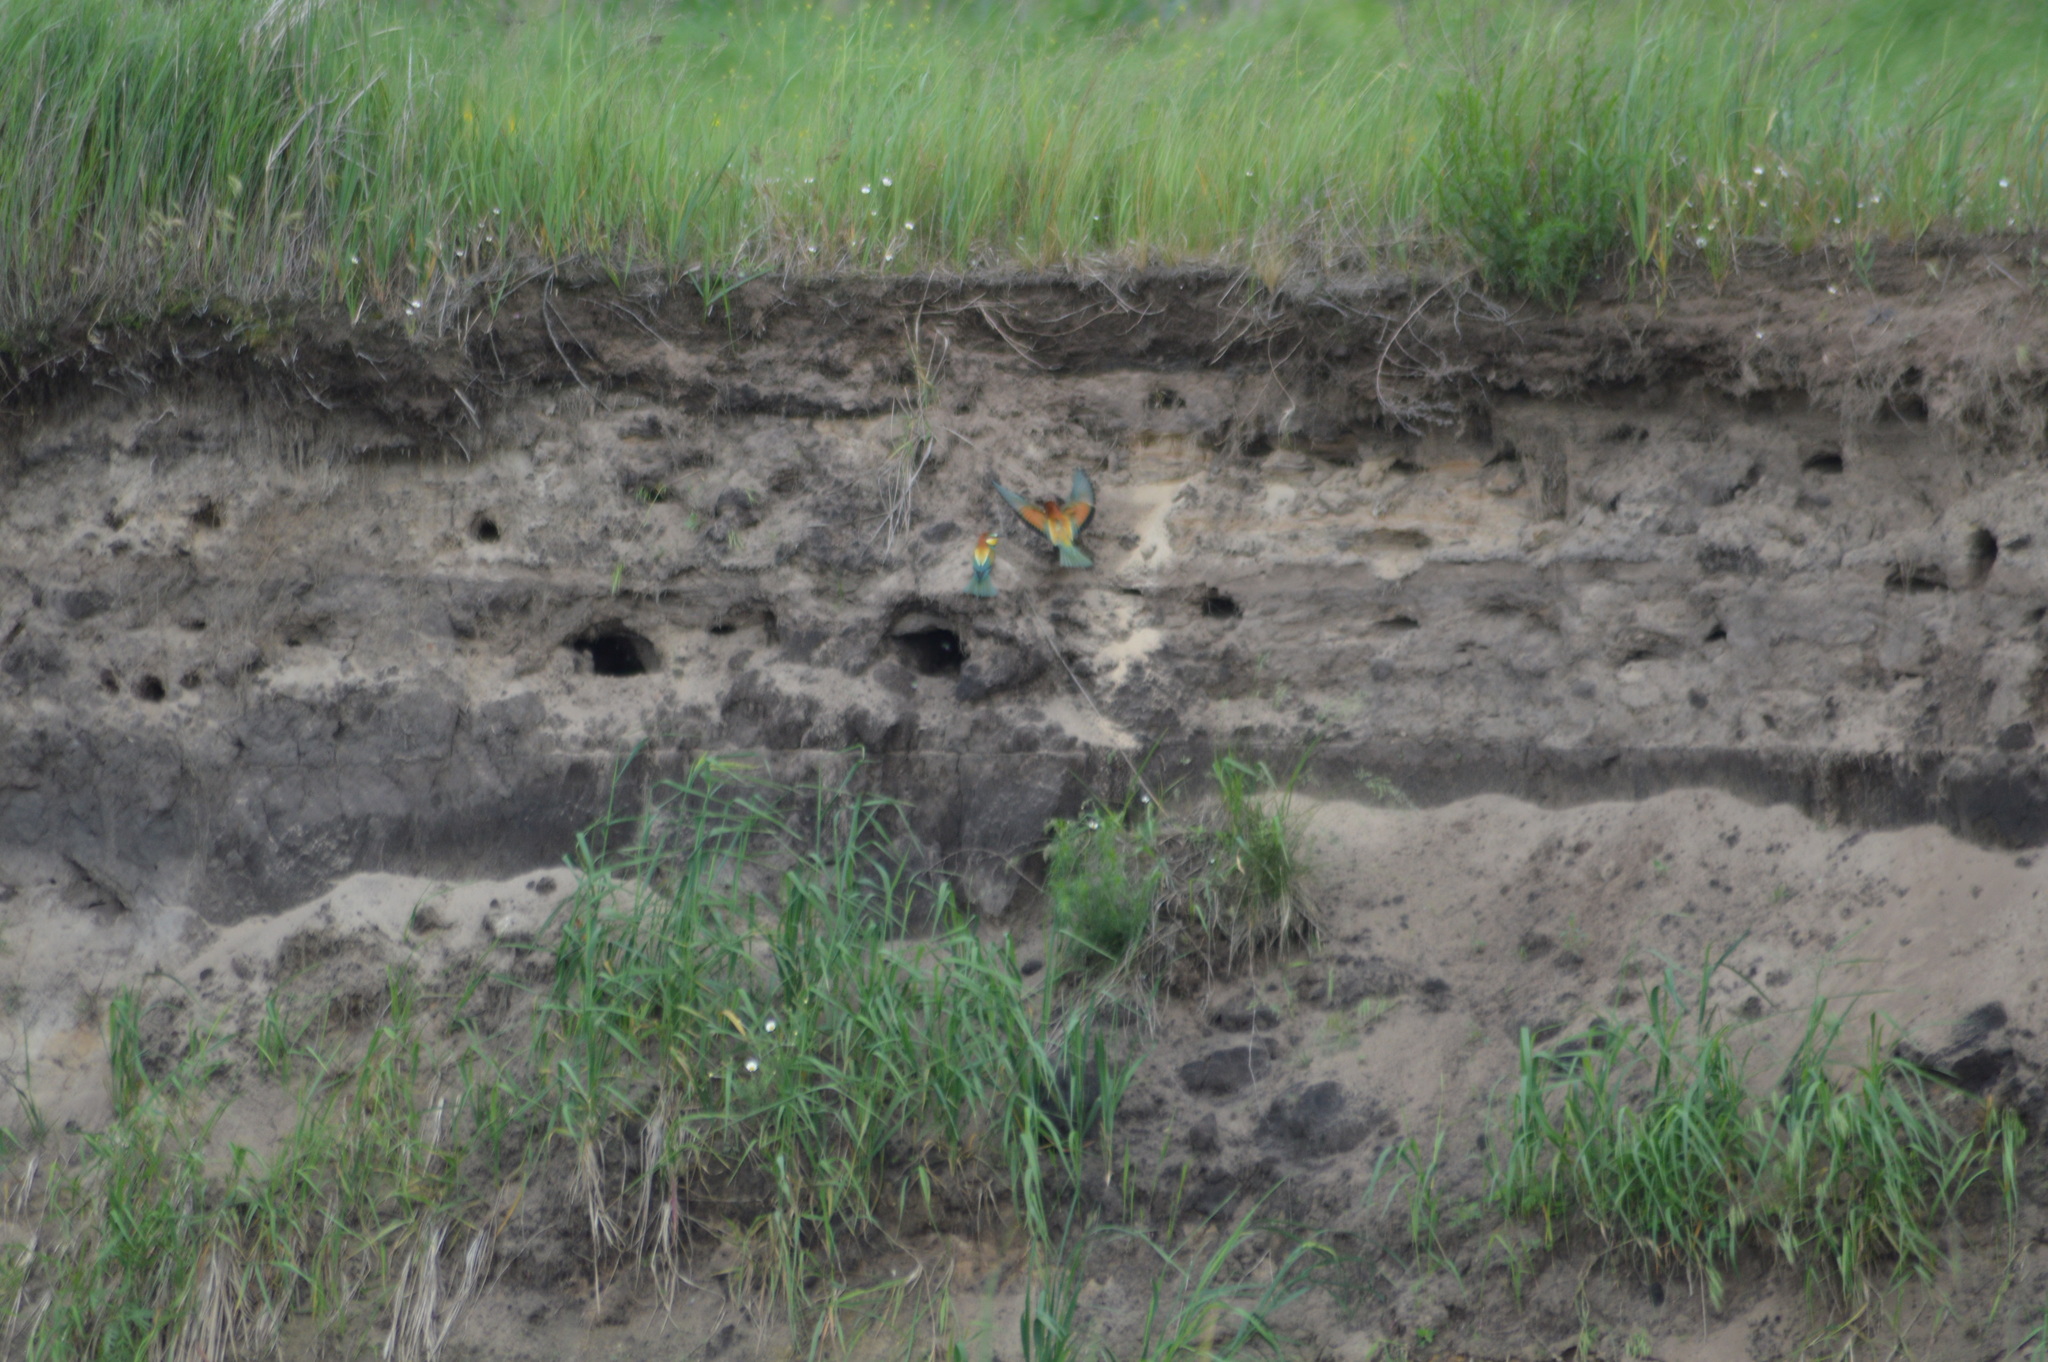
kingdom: Animalia
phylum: Chordata
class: Aves
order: Coraciiformes
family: Meropidae
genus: Merops
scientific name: Merops apiaster
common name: European bee-eater
